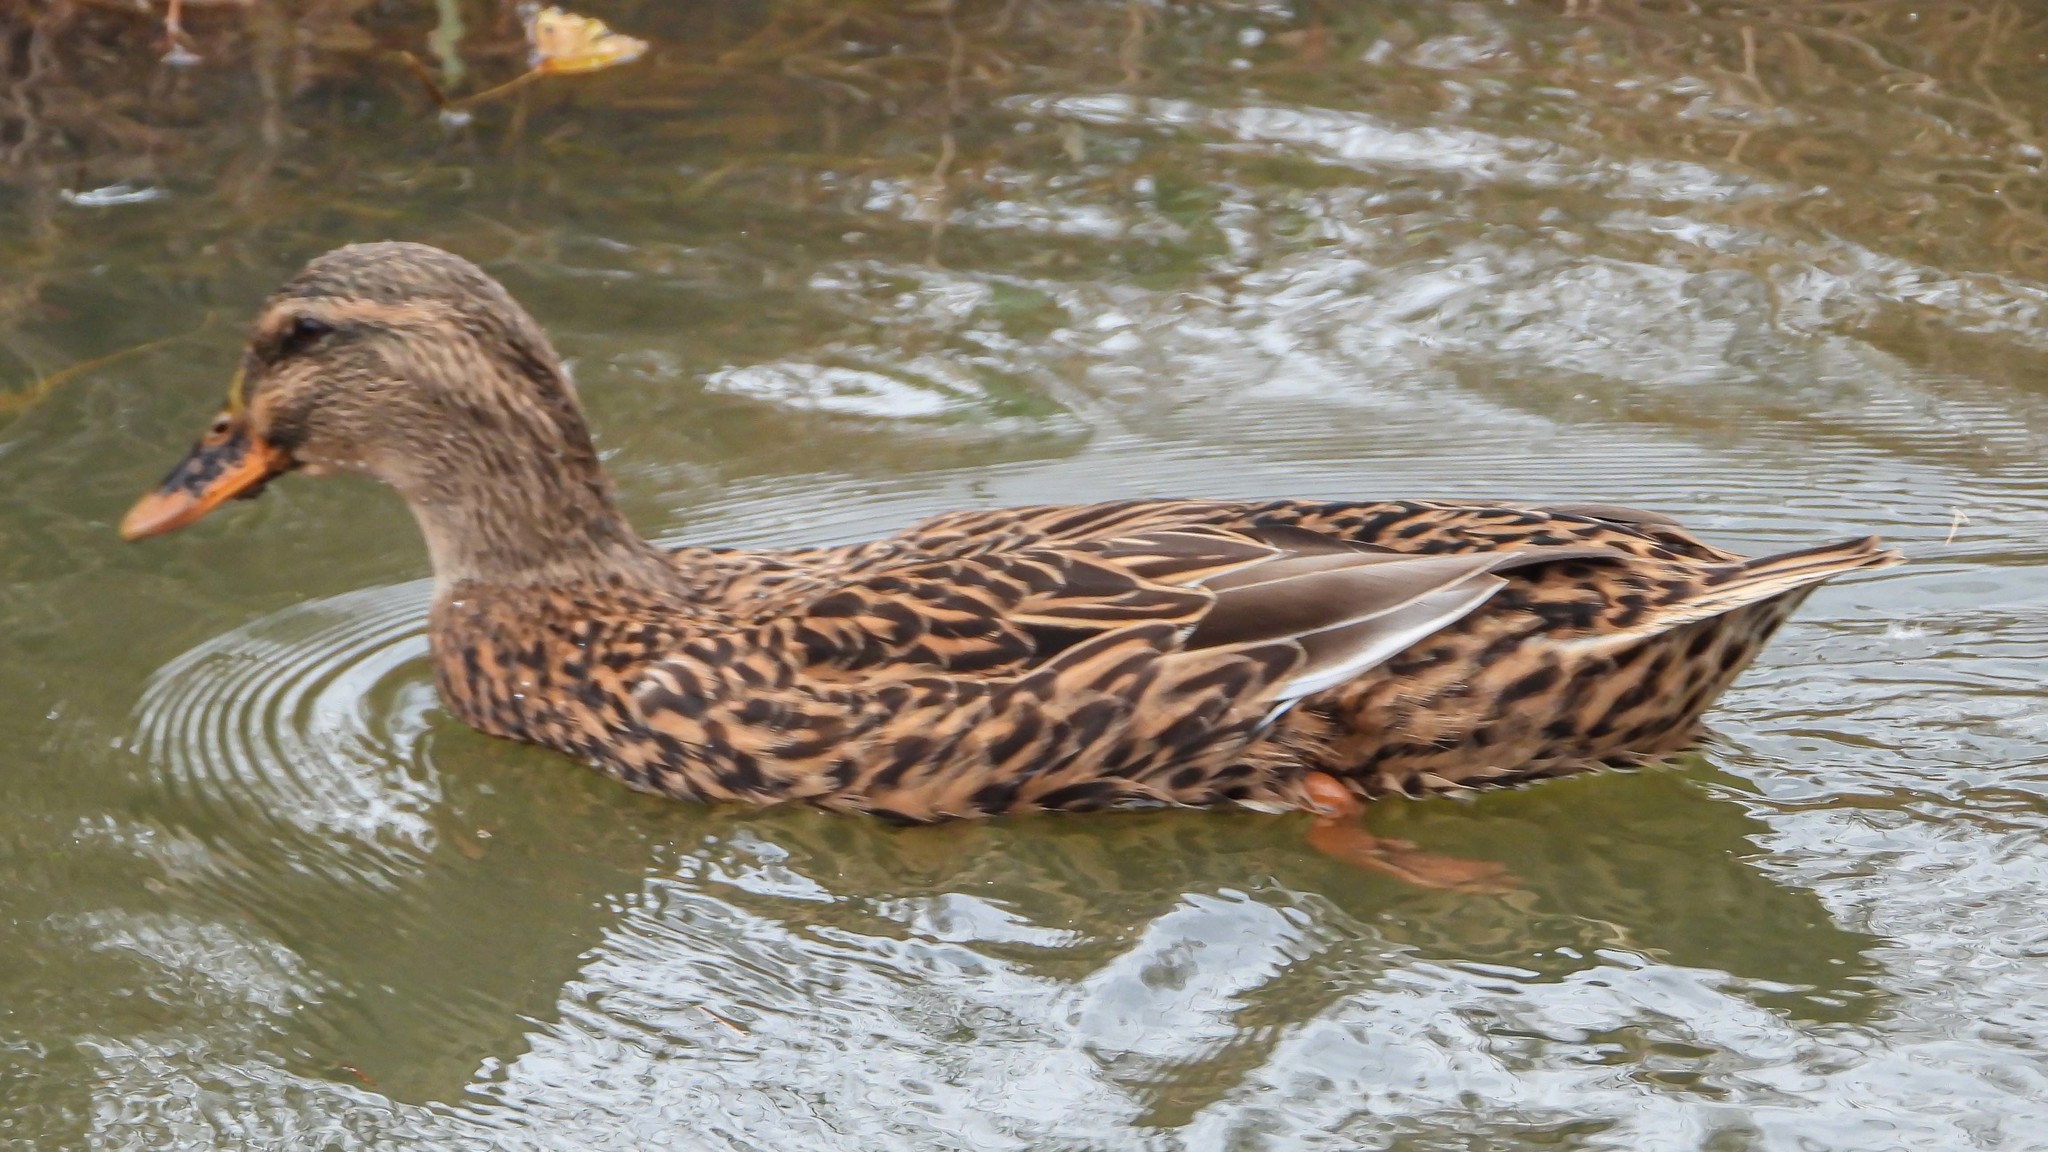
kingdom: Animalia
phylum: Chordata
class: Aves
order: Anseriformes
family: Anatidae
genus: Anas
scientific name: Anas platyrhynchos
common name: Mallard
